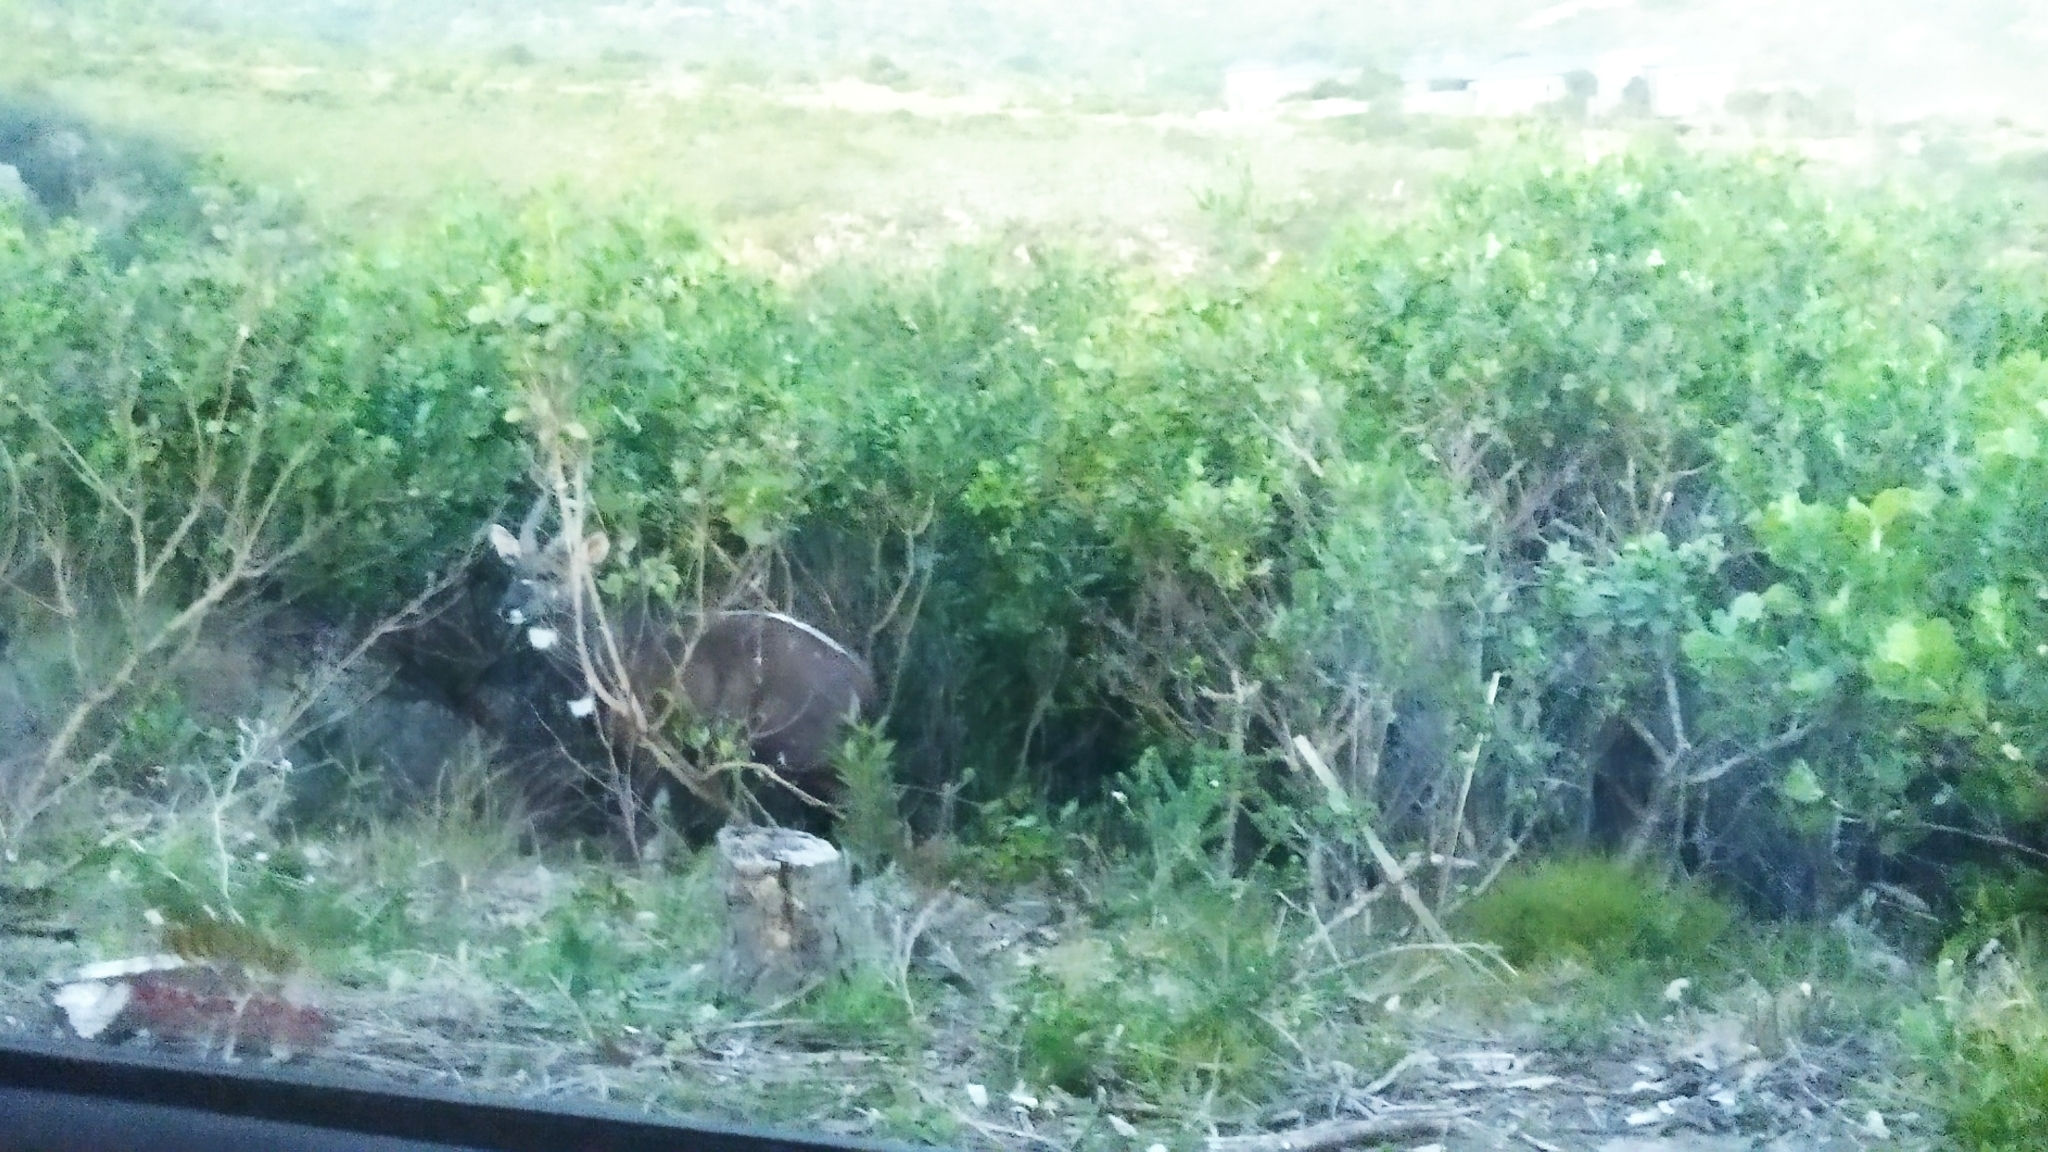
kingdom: Animalia
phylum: Chordata
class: Mammalia
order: Artiodactyla
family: Bovidae
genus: Tragelaphus
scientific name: Tragelaphus scriptus
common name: Bushbuck
